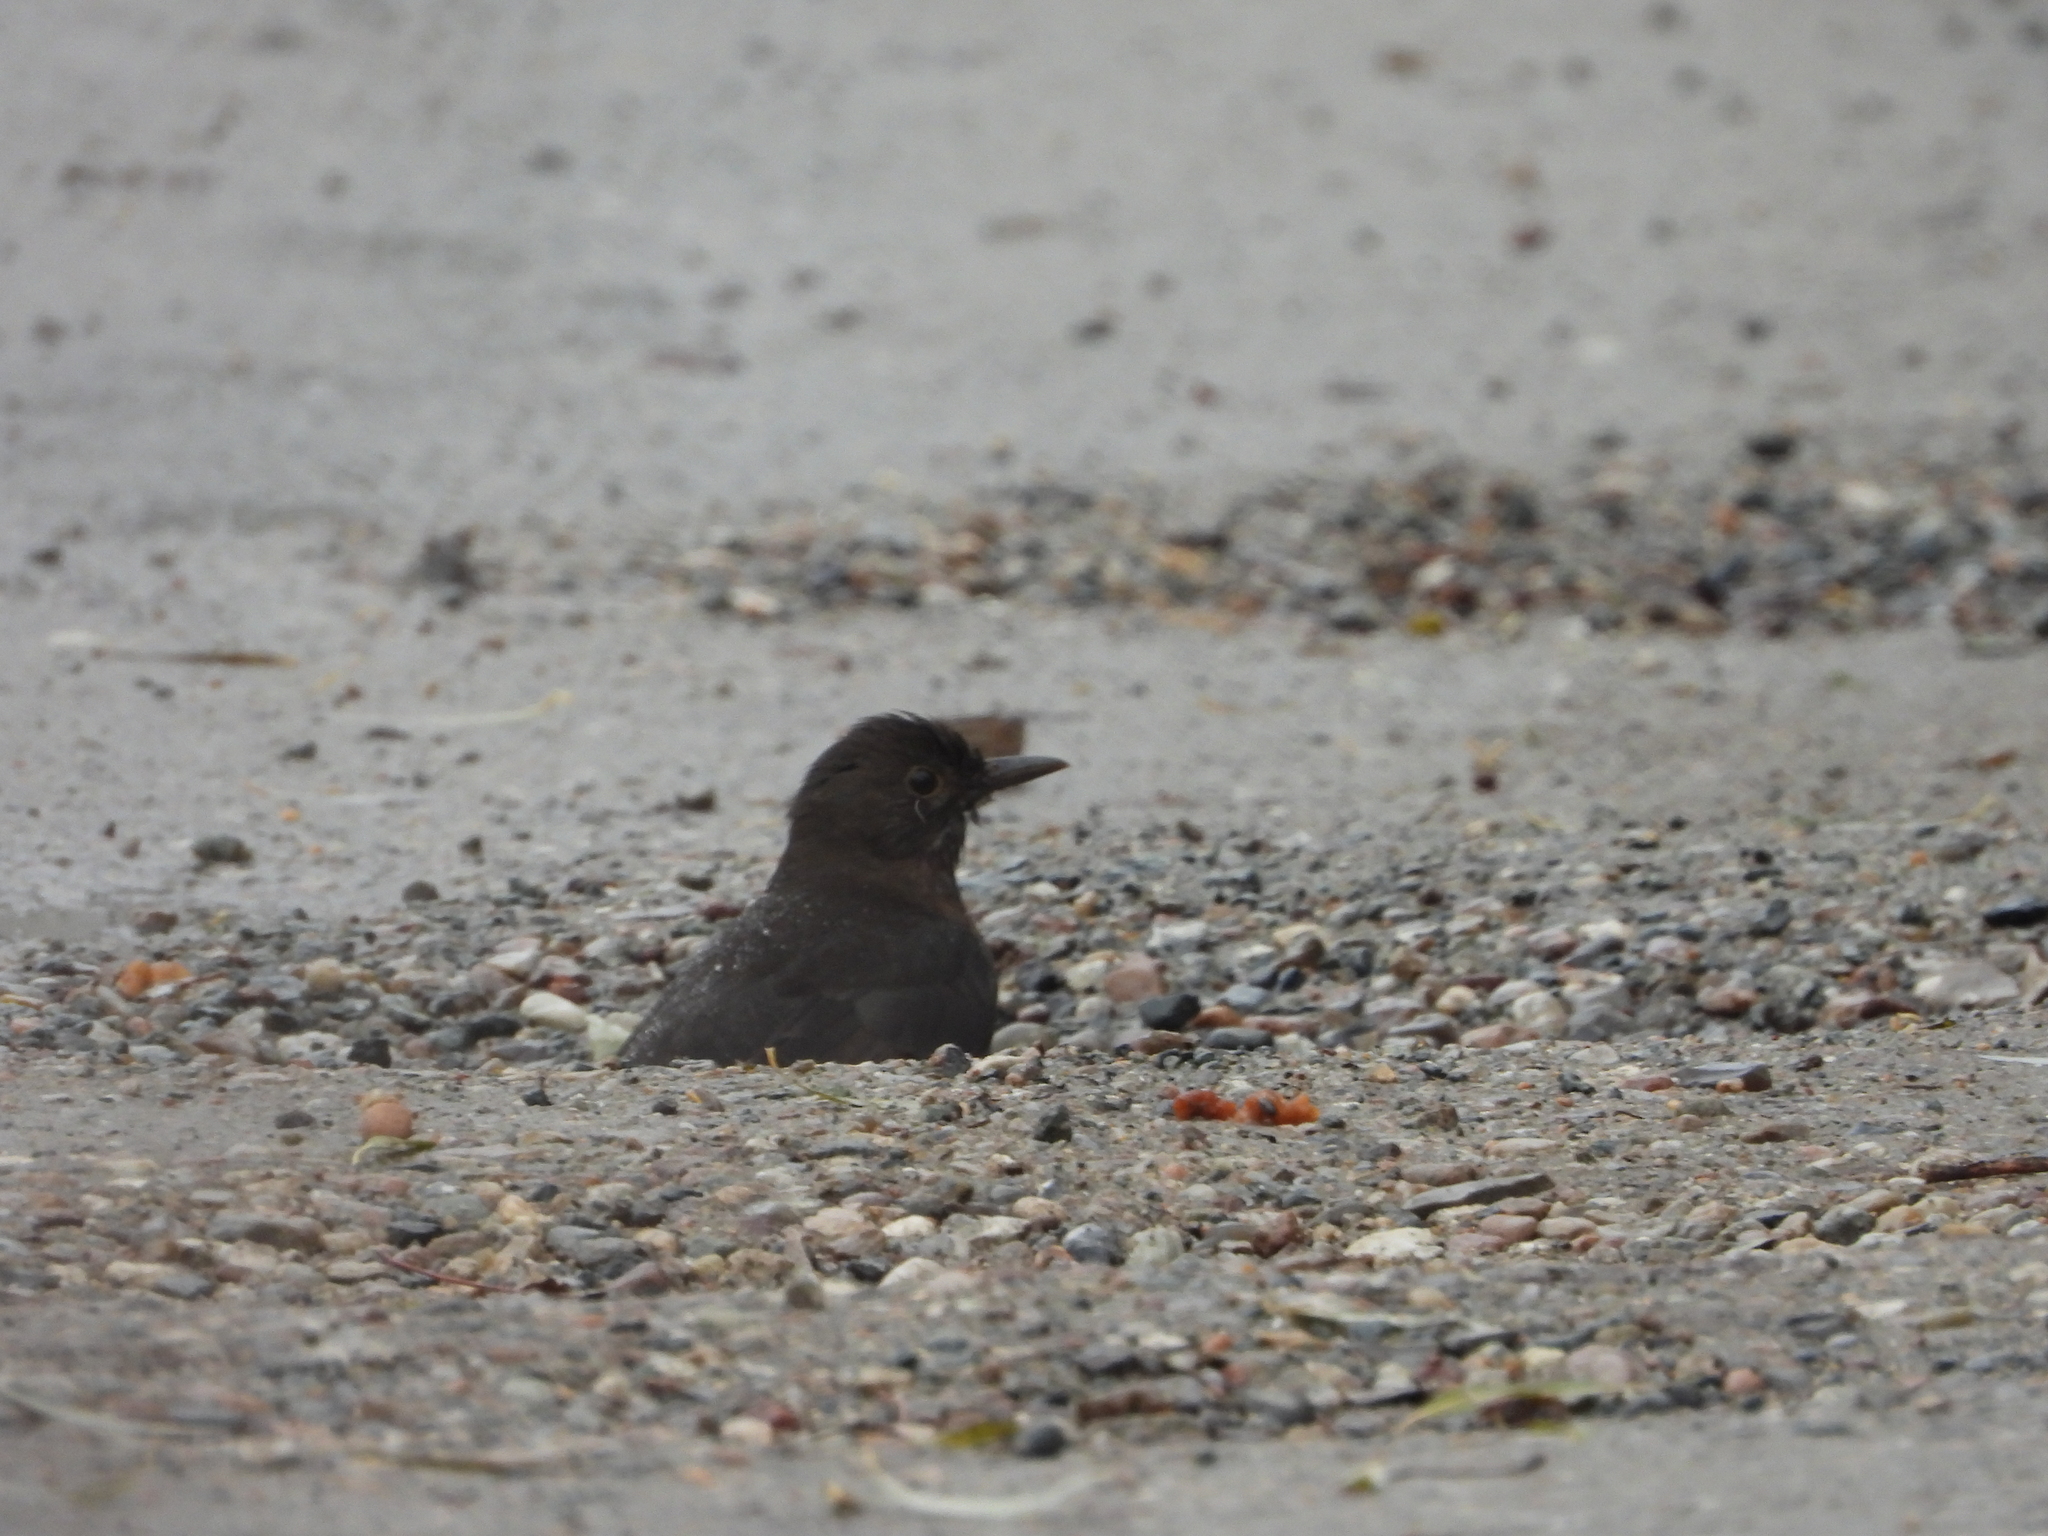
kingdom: Animalia
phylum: Chordata
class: Aves
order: Passeriformes
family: Turdidae
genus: Turdus
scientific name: Turdus merula
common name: Common blackbird
